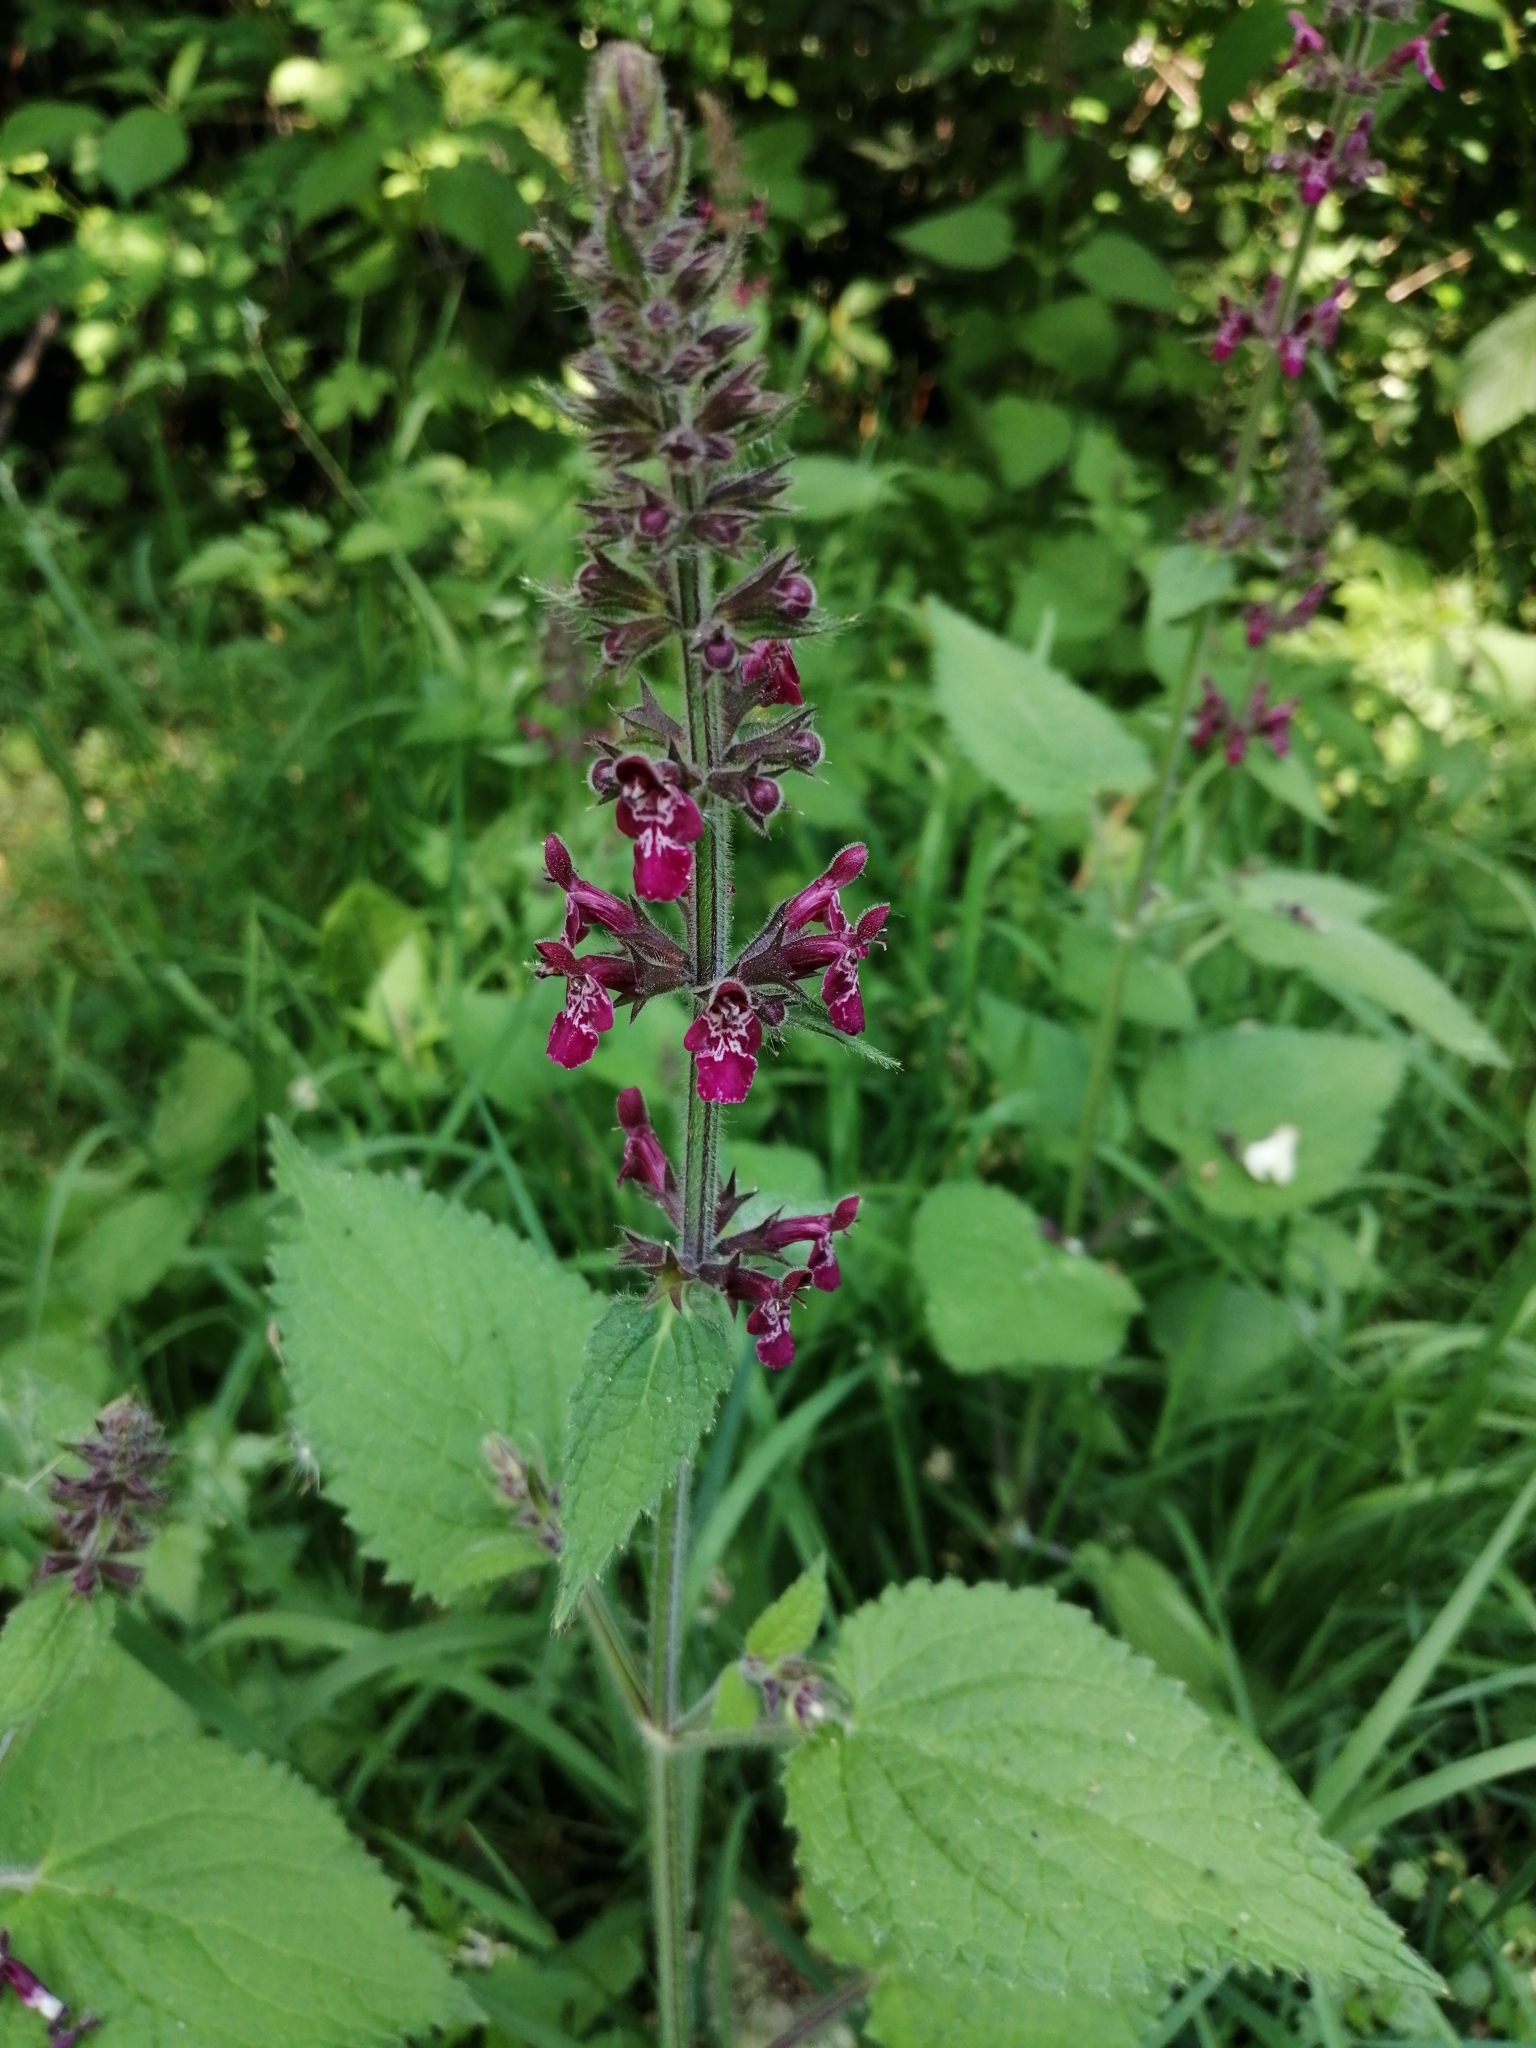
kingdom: Plantae
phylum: Tracheophyta
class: Magnoliopsida
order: Lamiales
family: Lamiaceae
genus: Stachys
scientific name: Stachys sylvatica
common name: Hedge woundwort
